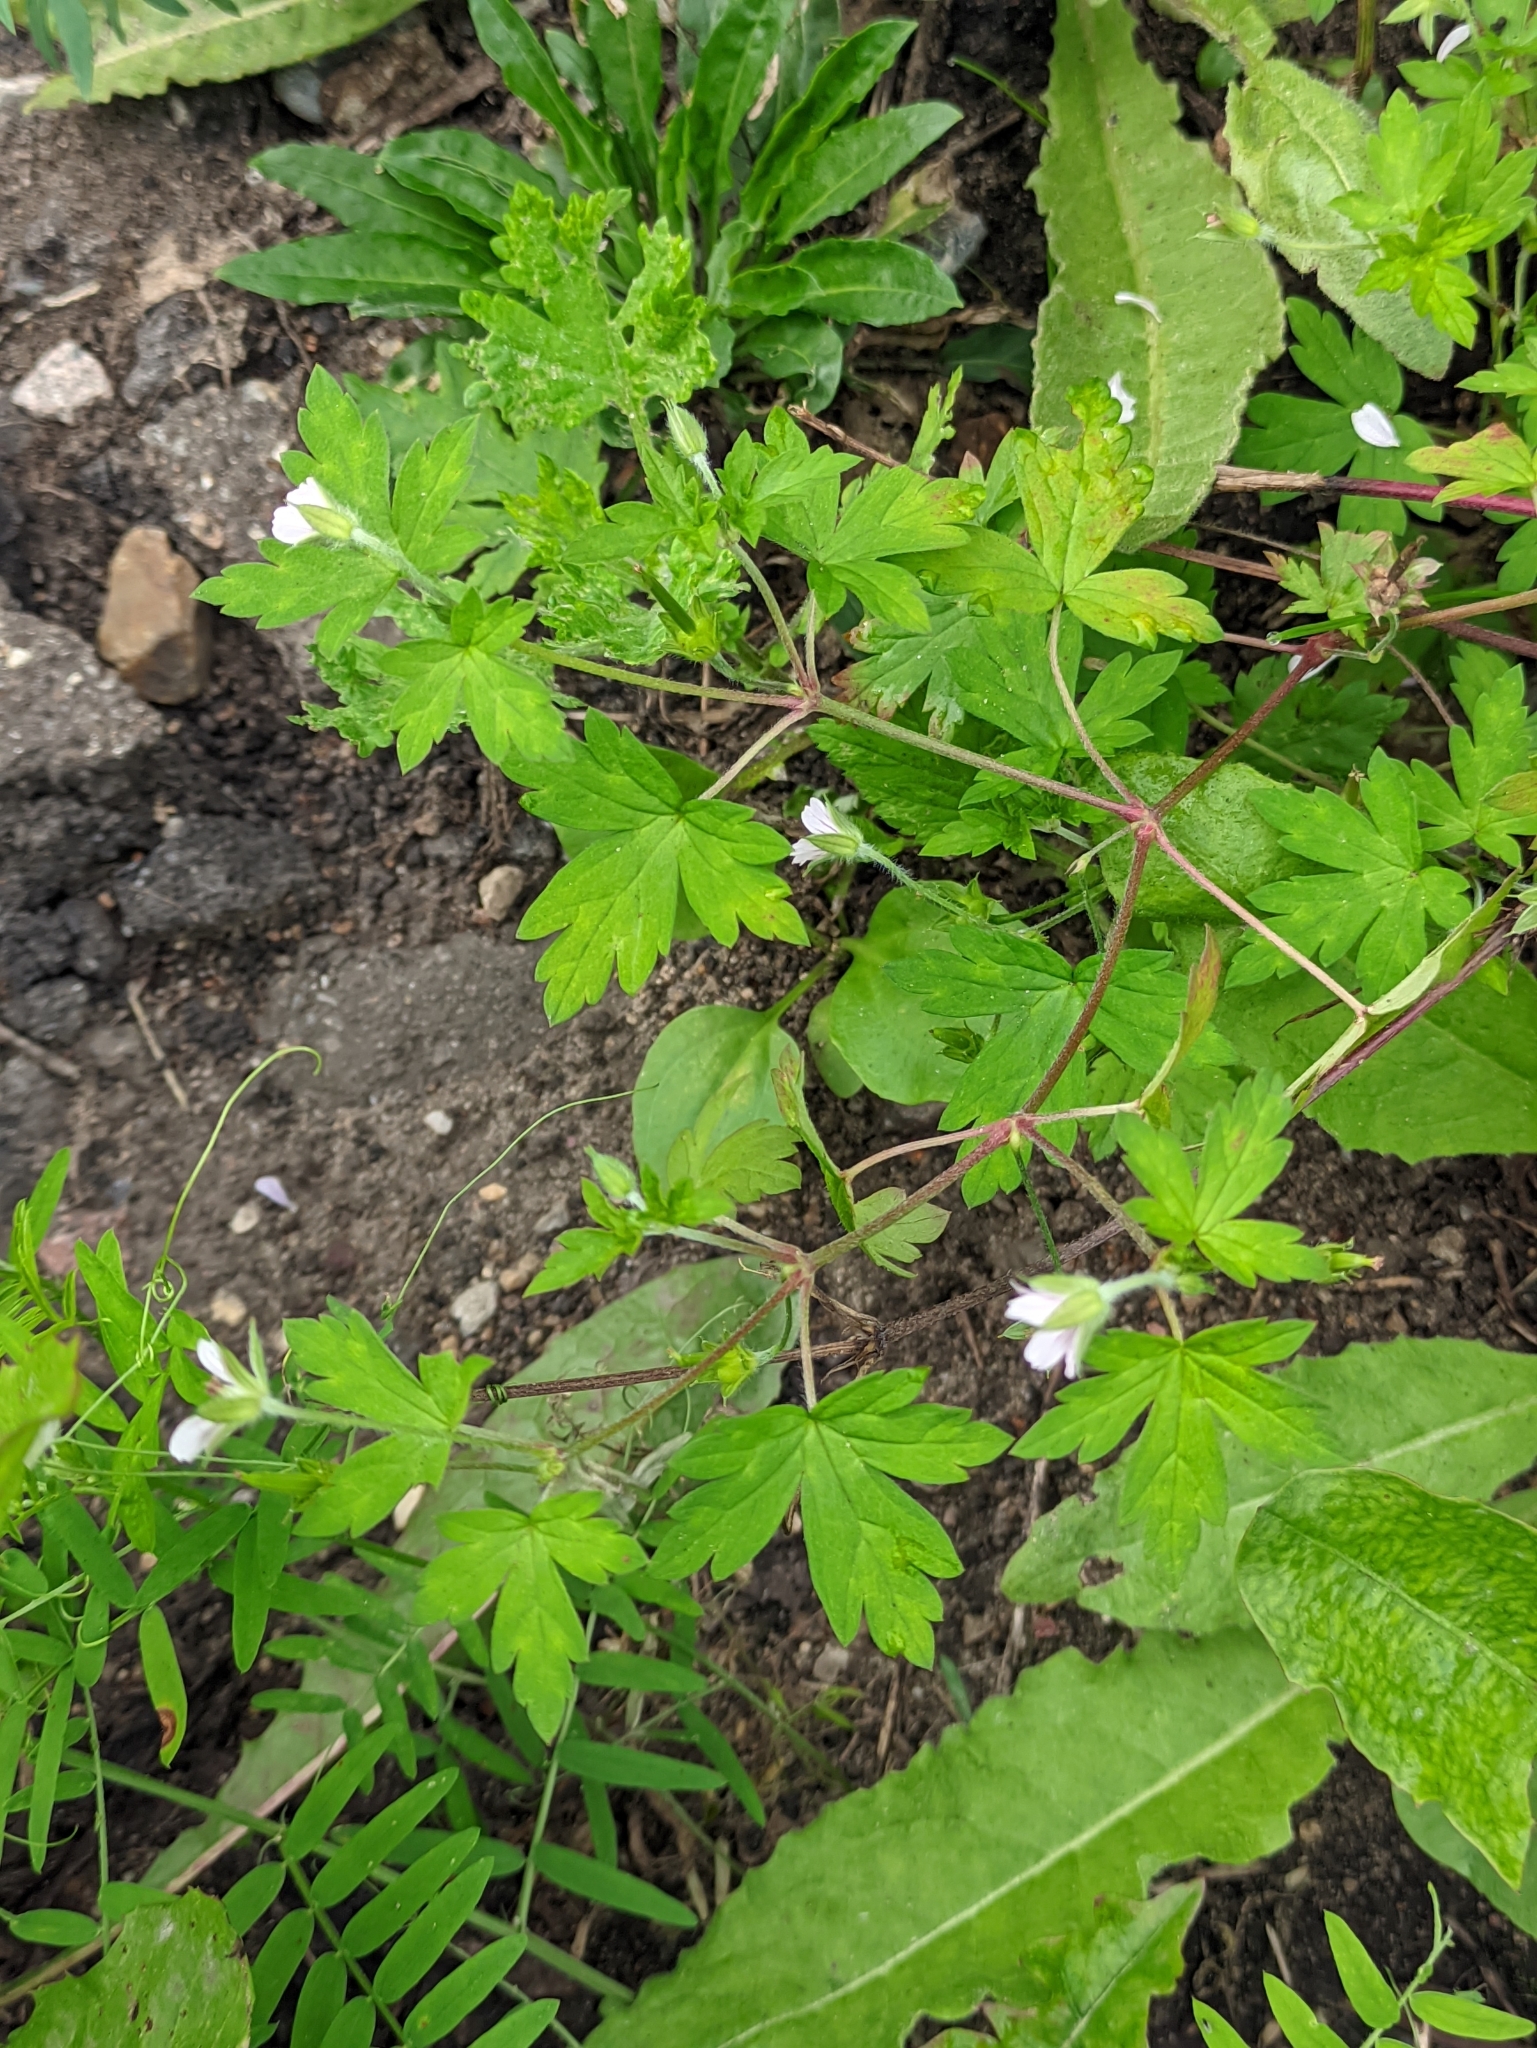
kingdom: Plantae
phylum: Tracheophyta
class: Magnoliopsida
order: Geraniales
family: Geraniaceae
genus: Geranium
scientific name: Geranium sibiricum
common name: Siberian crane's-bill
